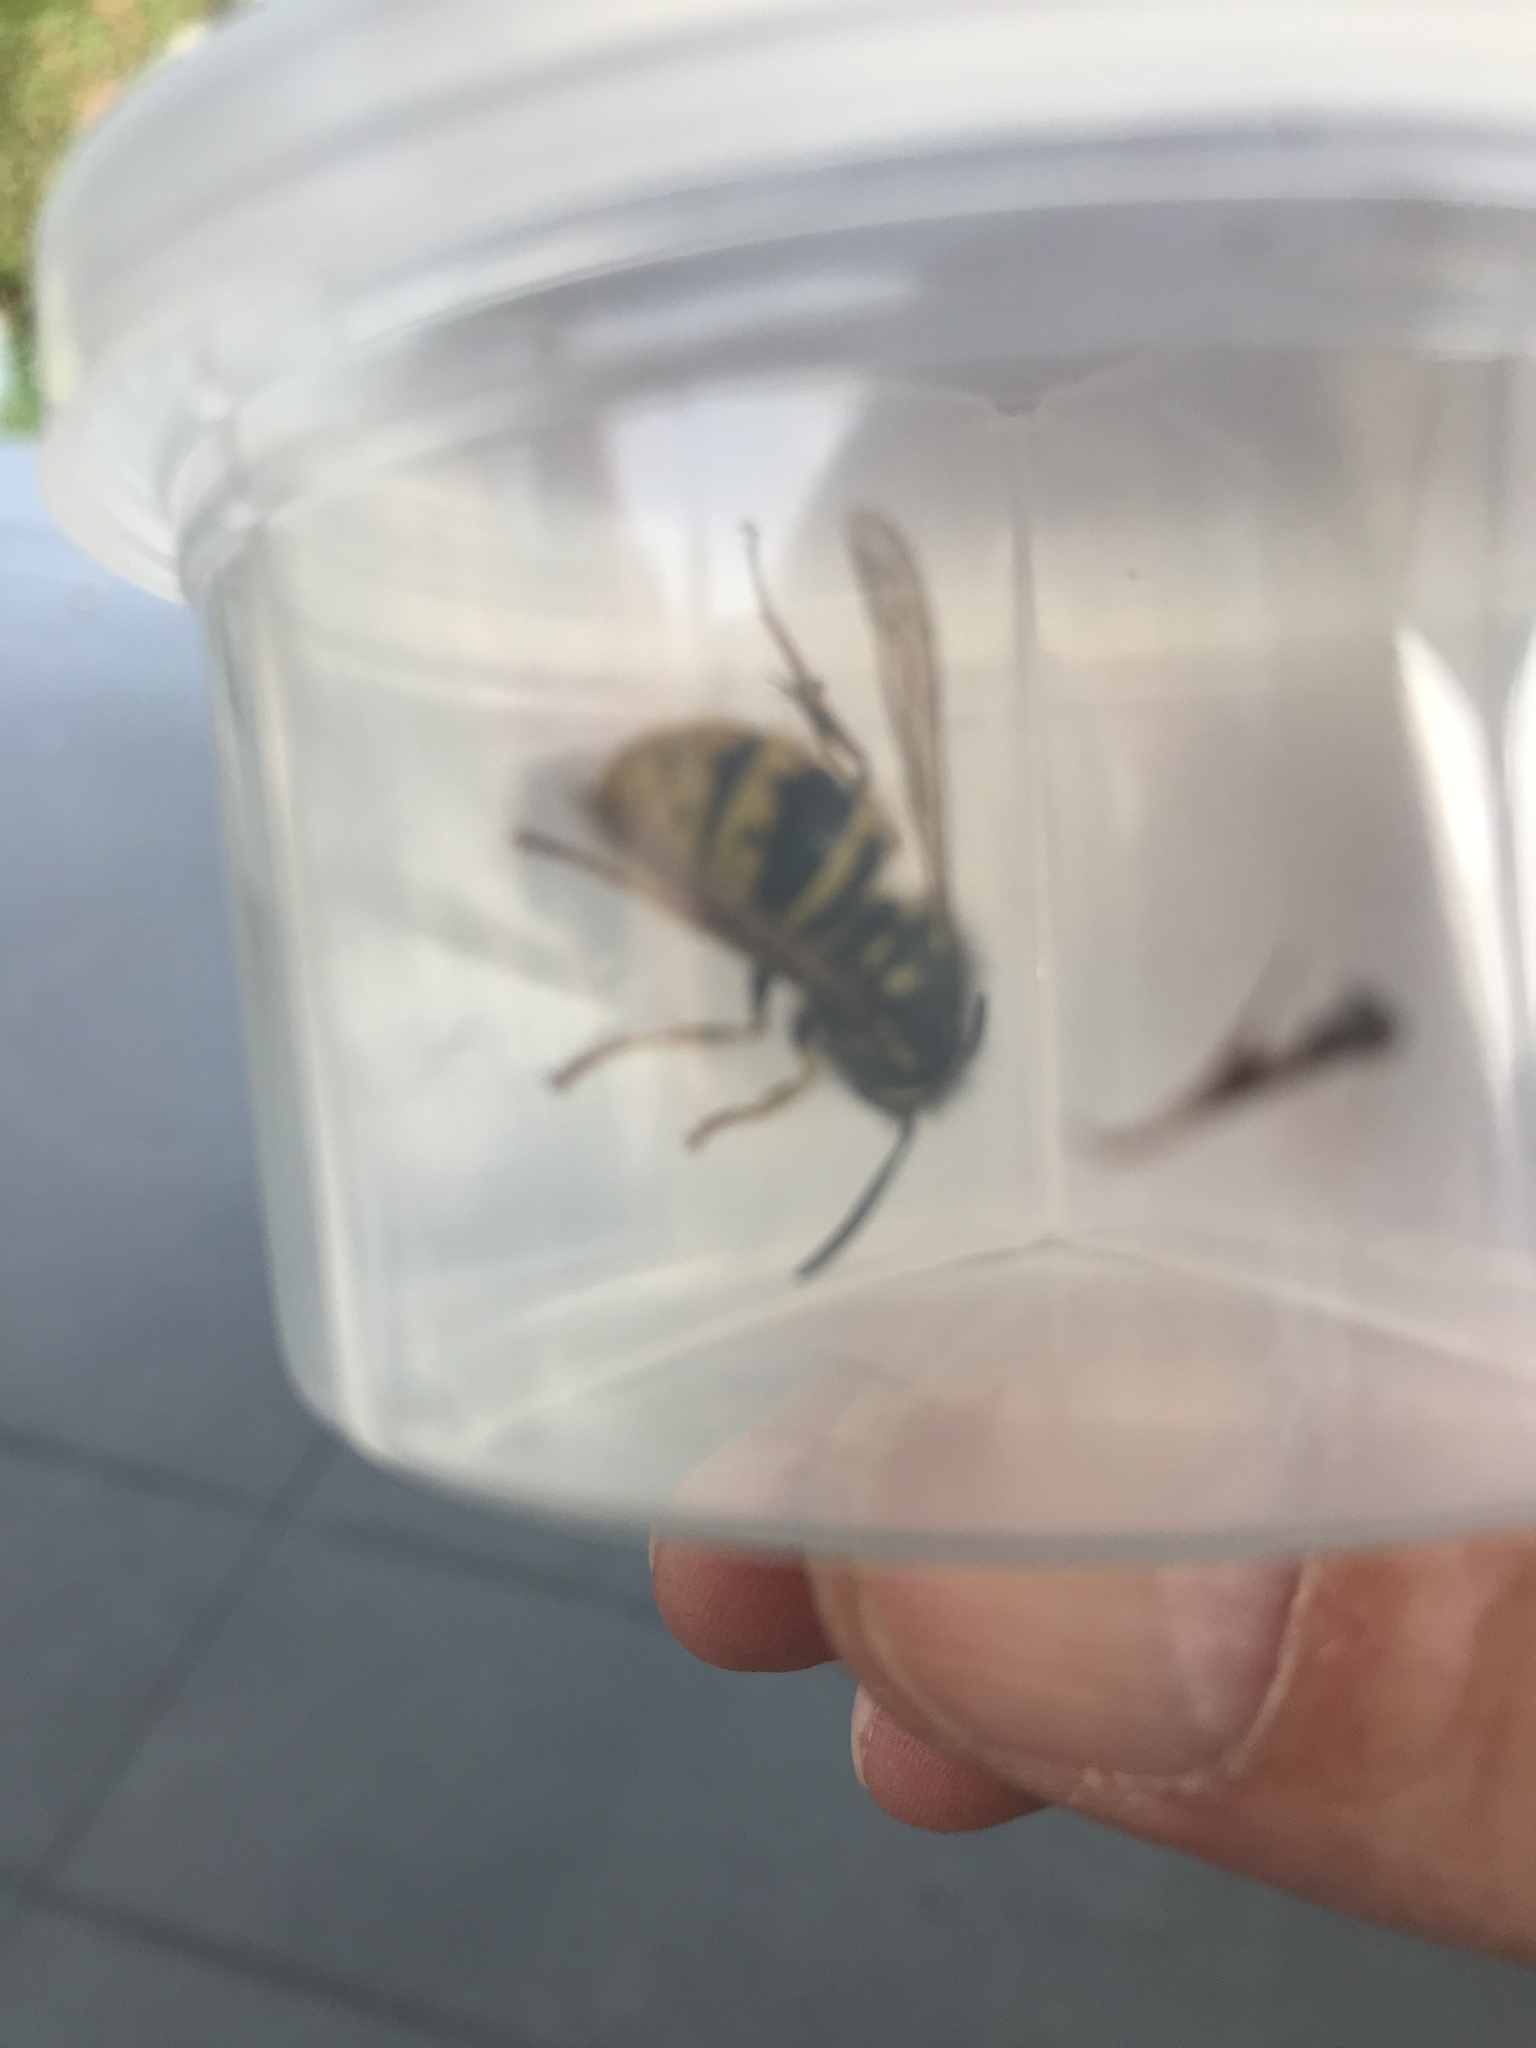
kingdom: Animalia
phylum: Arthropoda
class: Insecta
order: Hymenoptera
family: Vespidae
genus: Vespula
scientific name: Vespula vulgaris
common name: Common wasp
